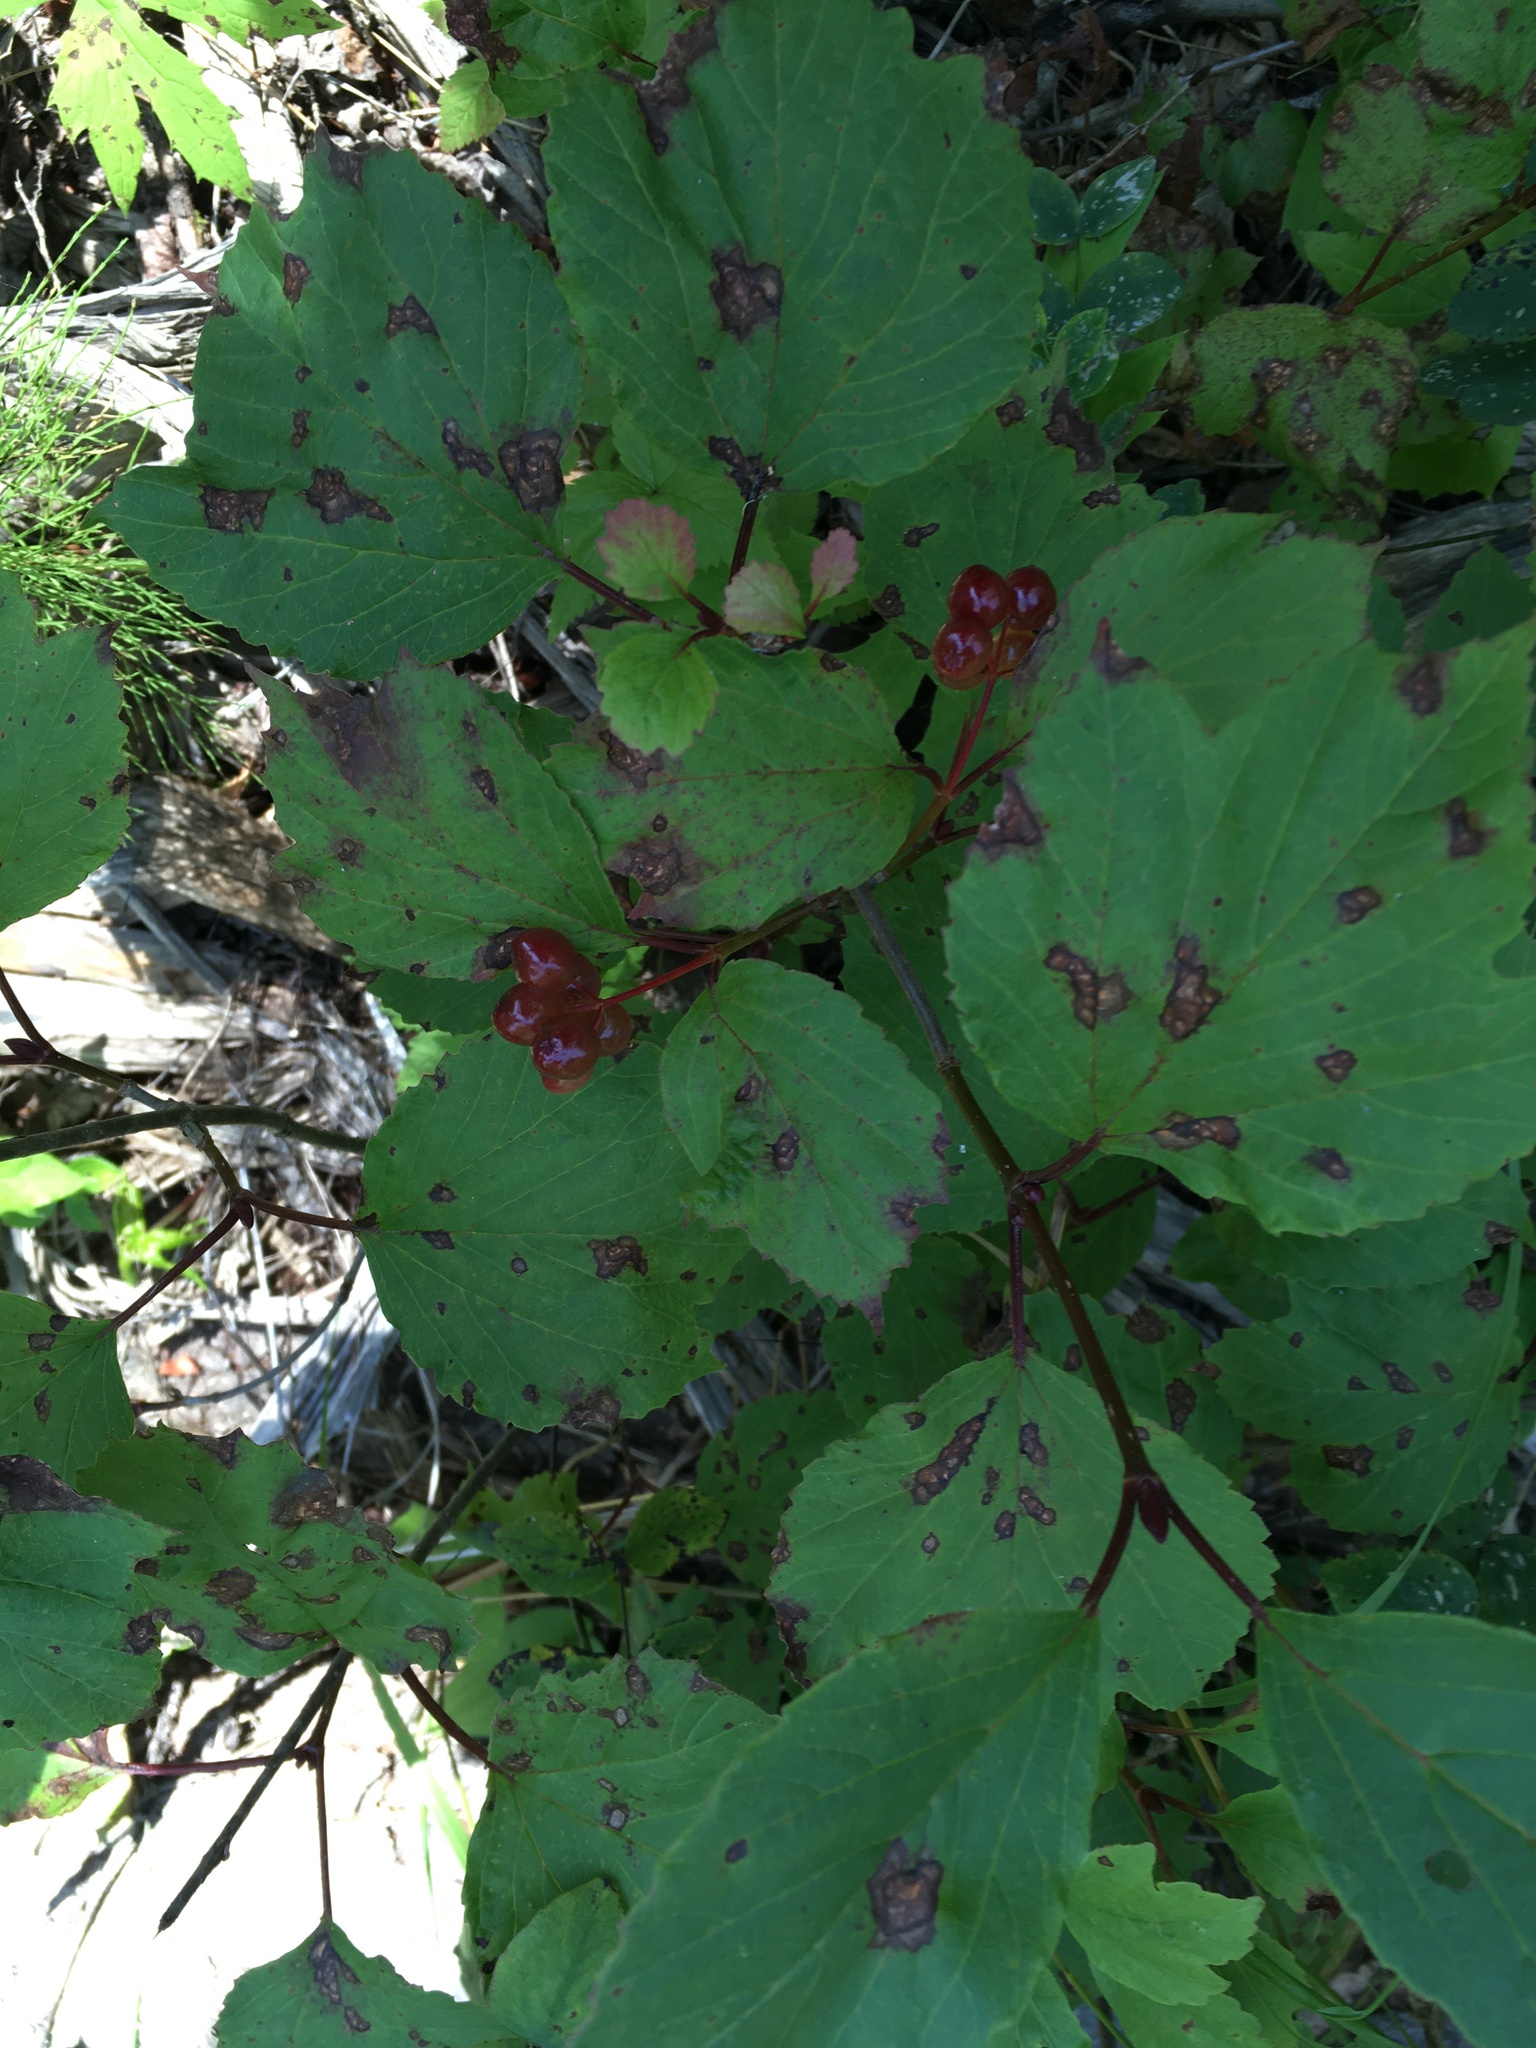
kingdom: Plantae
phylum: Tracheophyta
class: Magnoliopsida
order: Dipsacales
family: Viburnaceae
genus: Viburnum
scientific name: Viburnum edule
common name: Mooseberry
